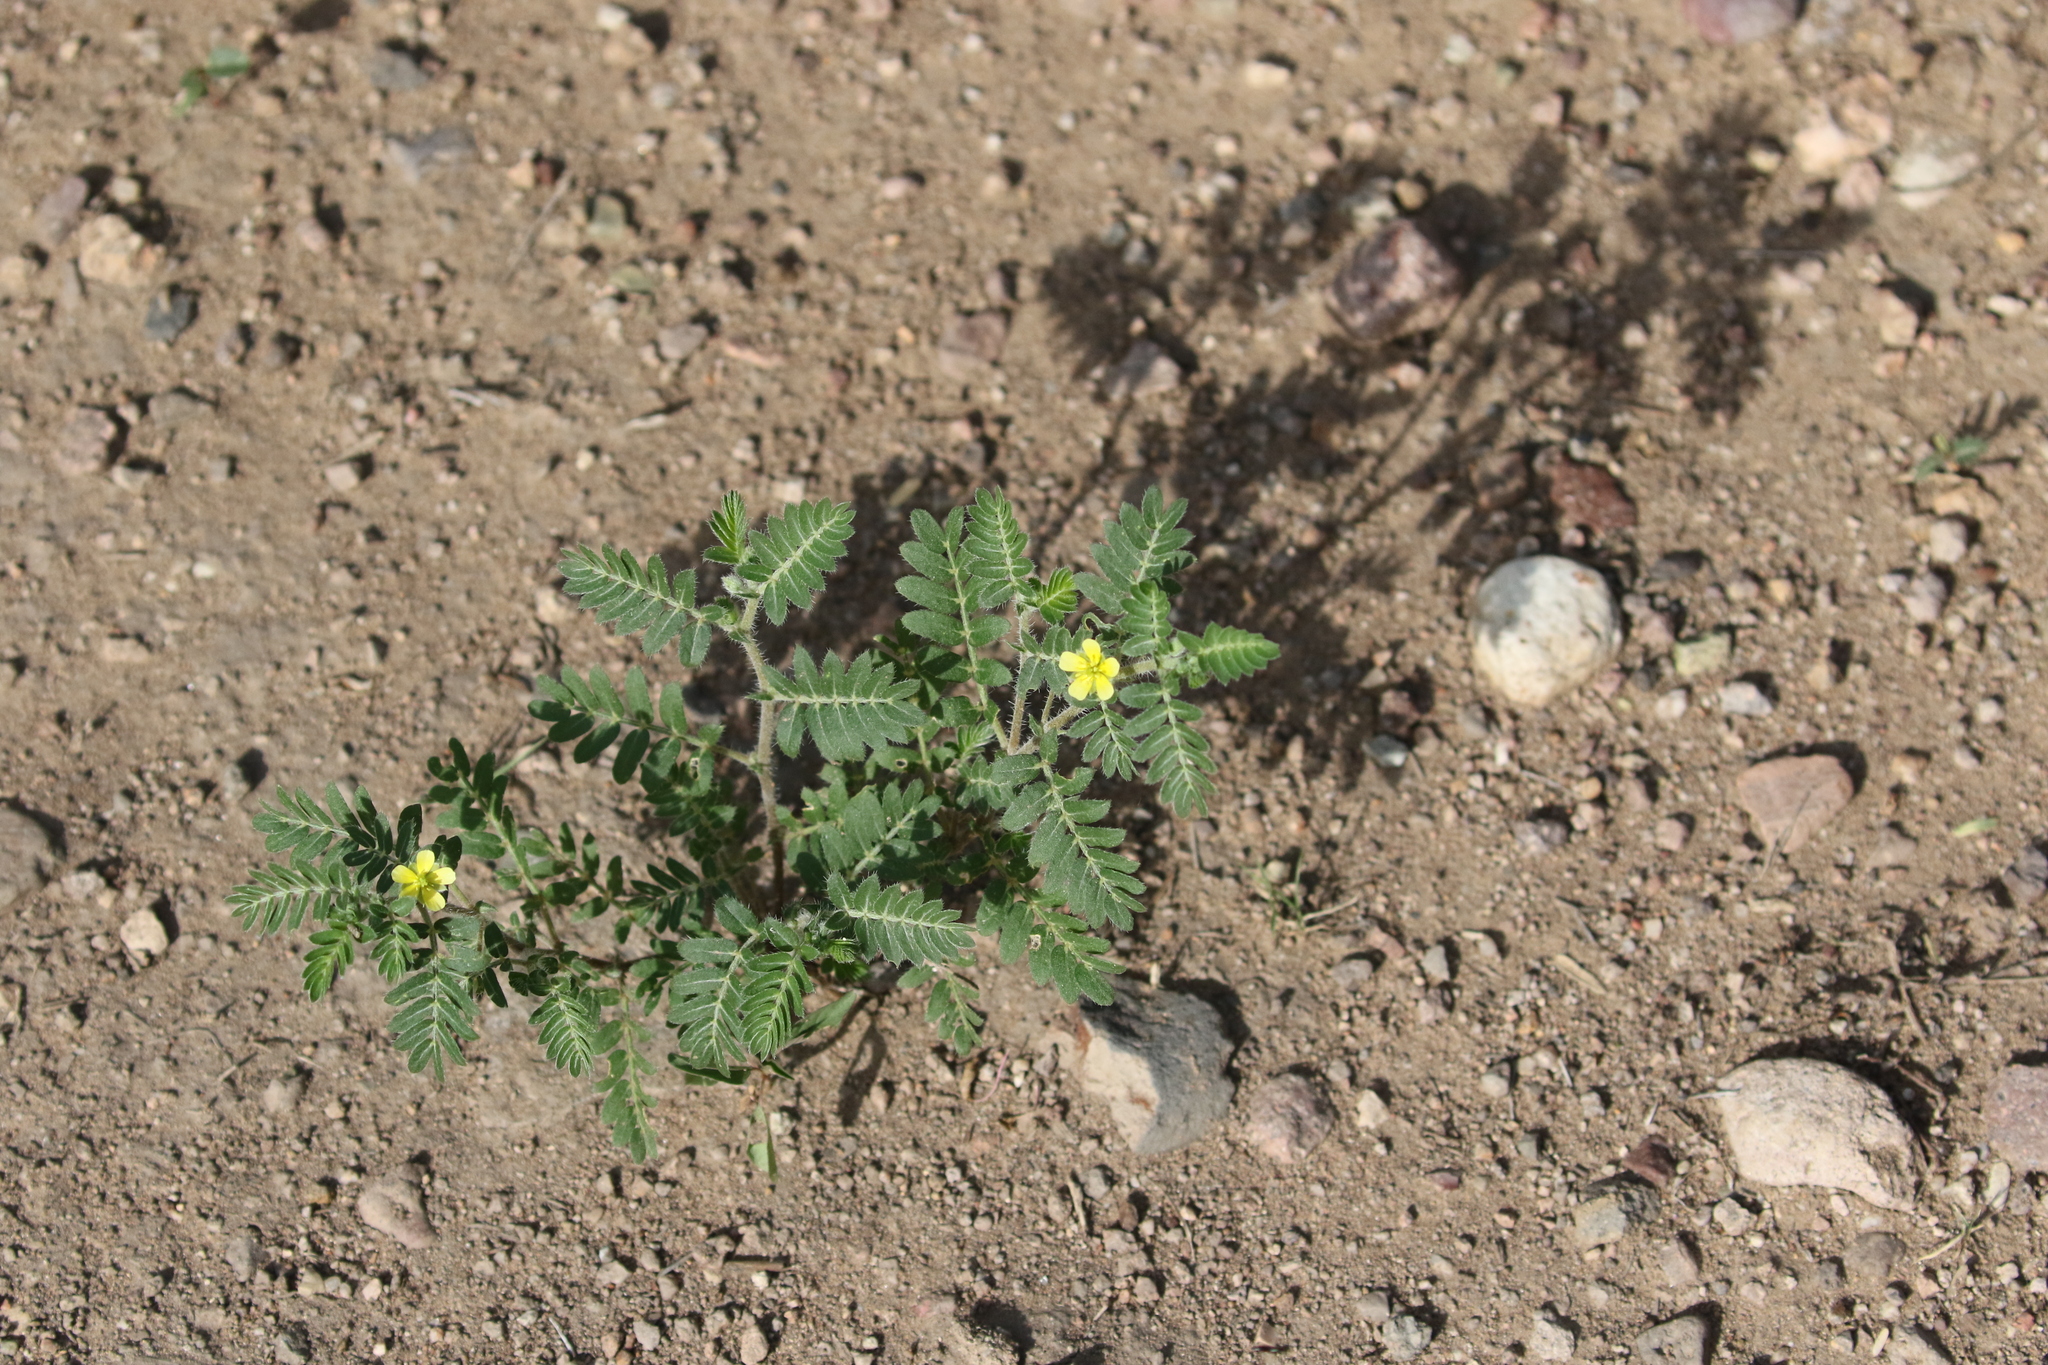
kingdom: Plantae
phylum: Tracheophyta
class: Magnoliopsida
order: Zygophyllales
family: Zygophyllaceae
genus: Tribulus
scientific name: Tribulus terrestris
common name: Puncturevine
